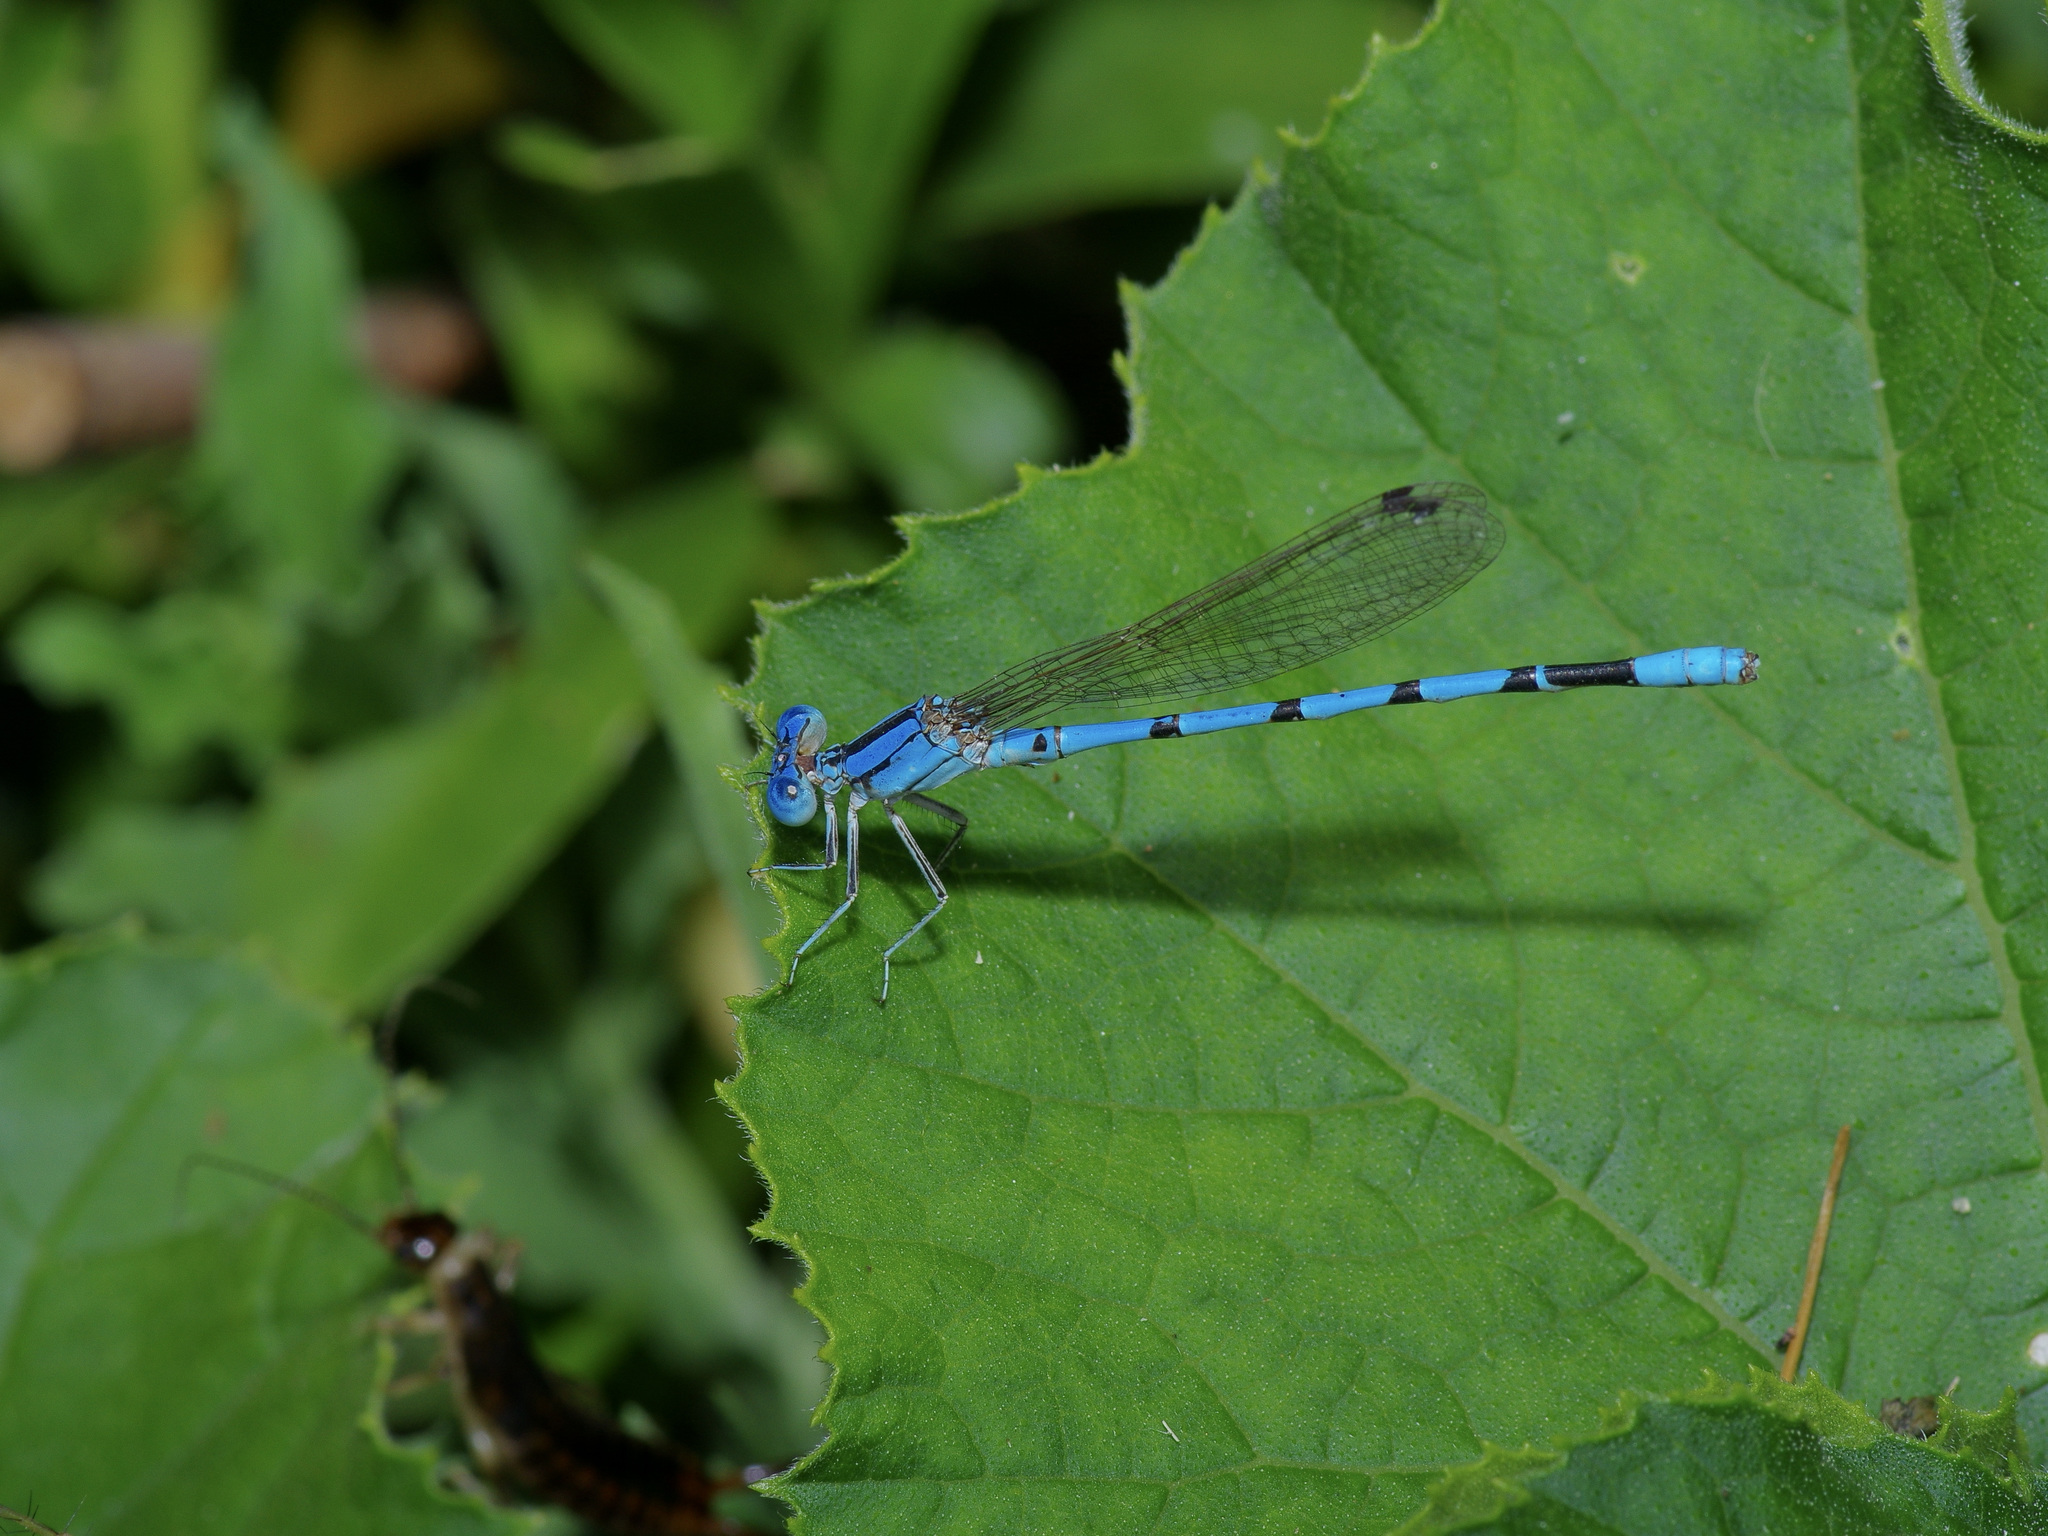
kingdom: Animalia
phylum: Arthropoda
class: Insecta
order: Odonata
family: Coenagrionidae
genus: Argia
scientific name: Argia nahuana
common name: Aztec dancer
